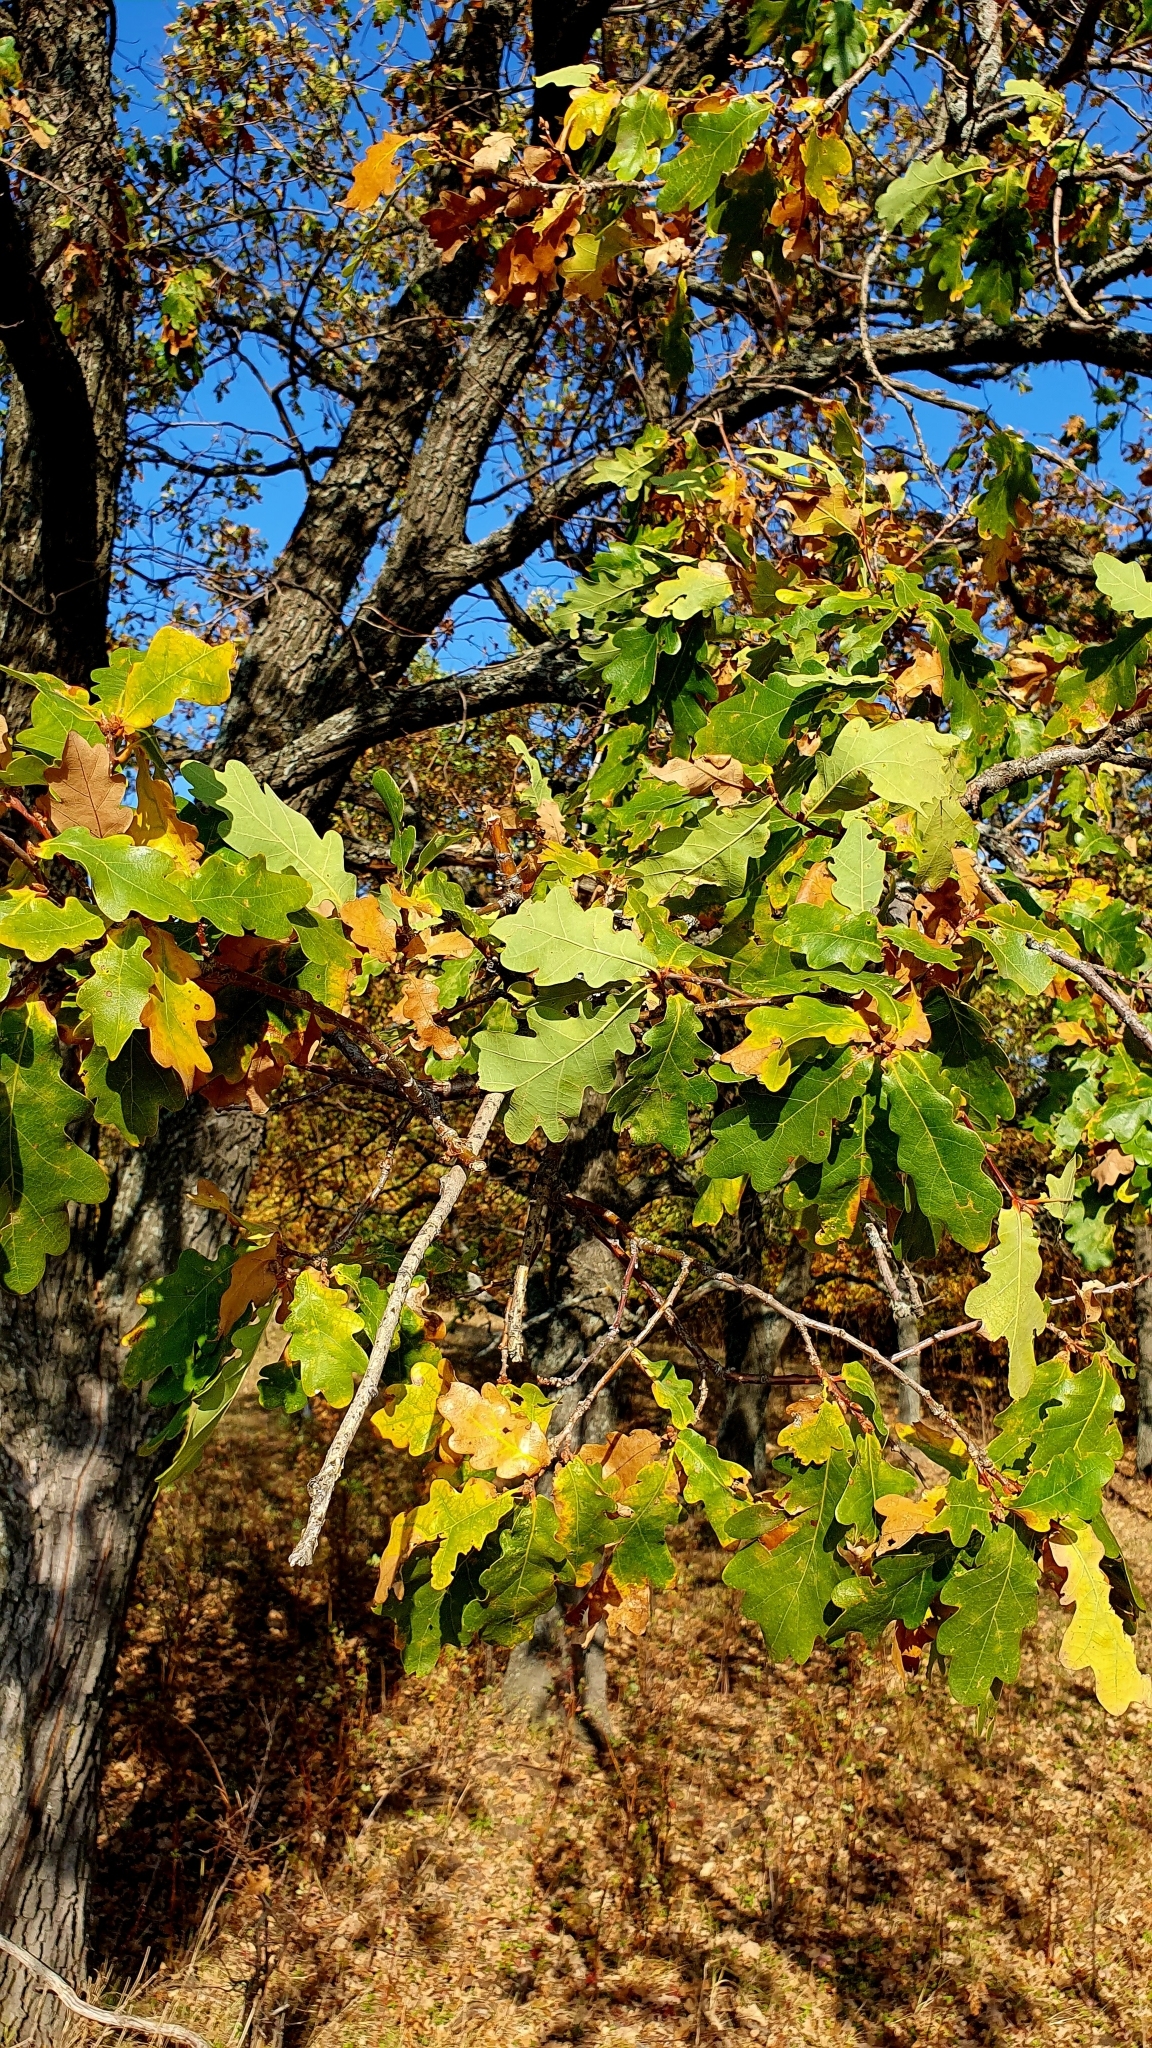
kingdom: Plantae
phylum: Tracheophyta
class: Magnoliopsida
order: Fagales
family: Fagaceae
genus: Quercus
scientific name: Quercus robur
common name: Pedunculate oak
